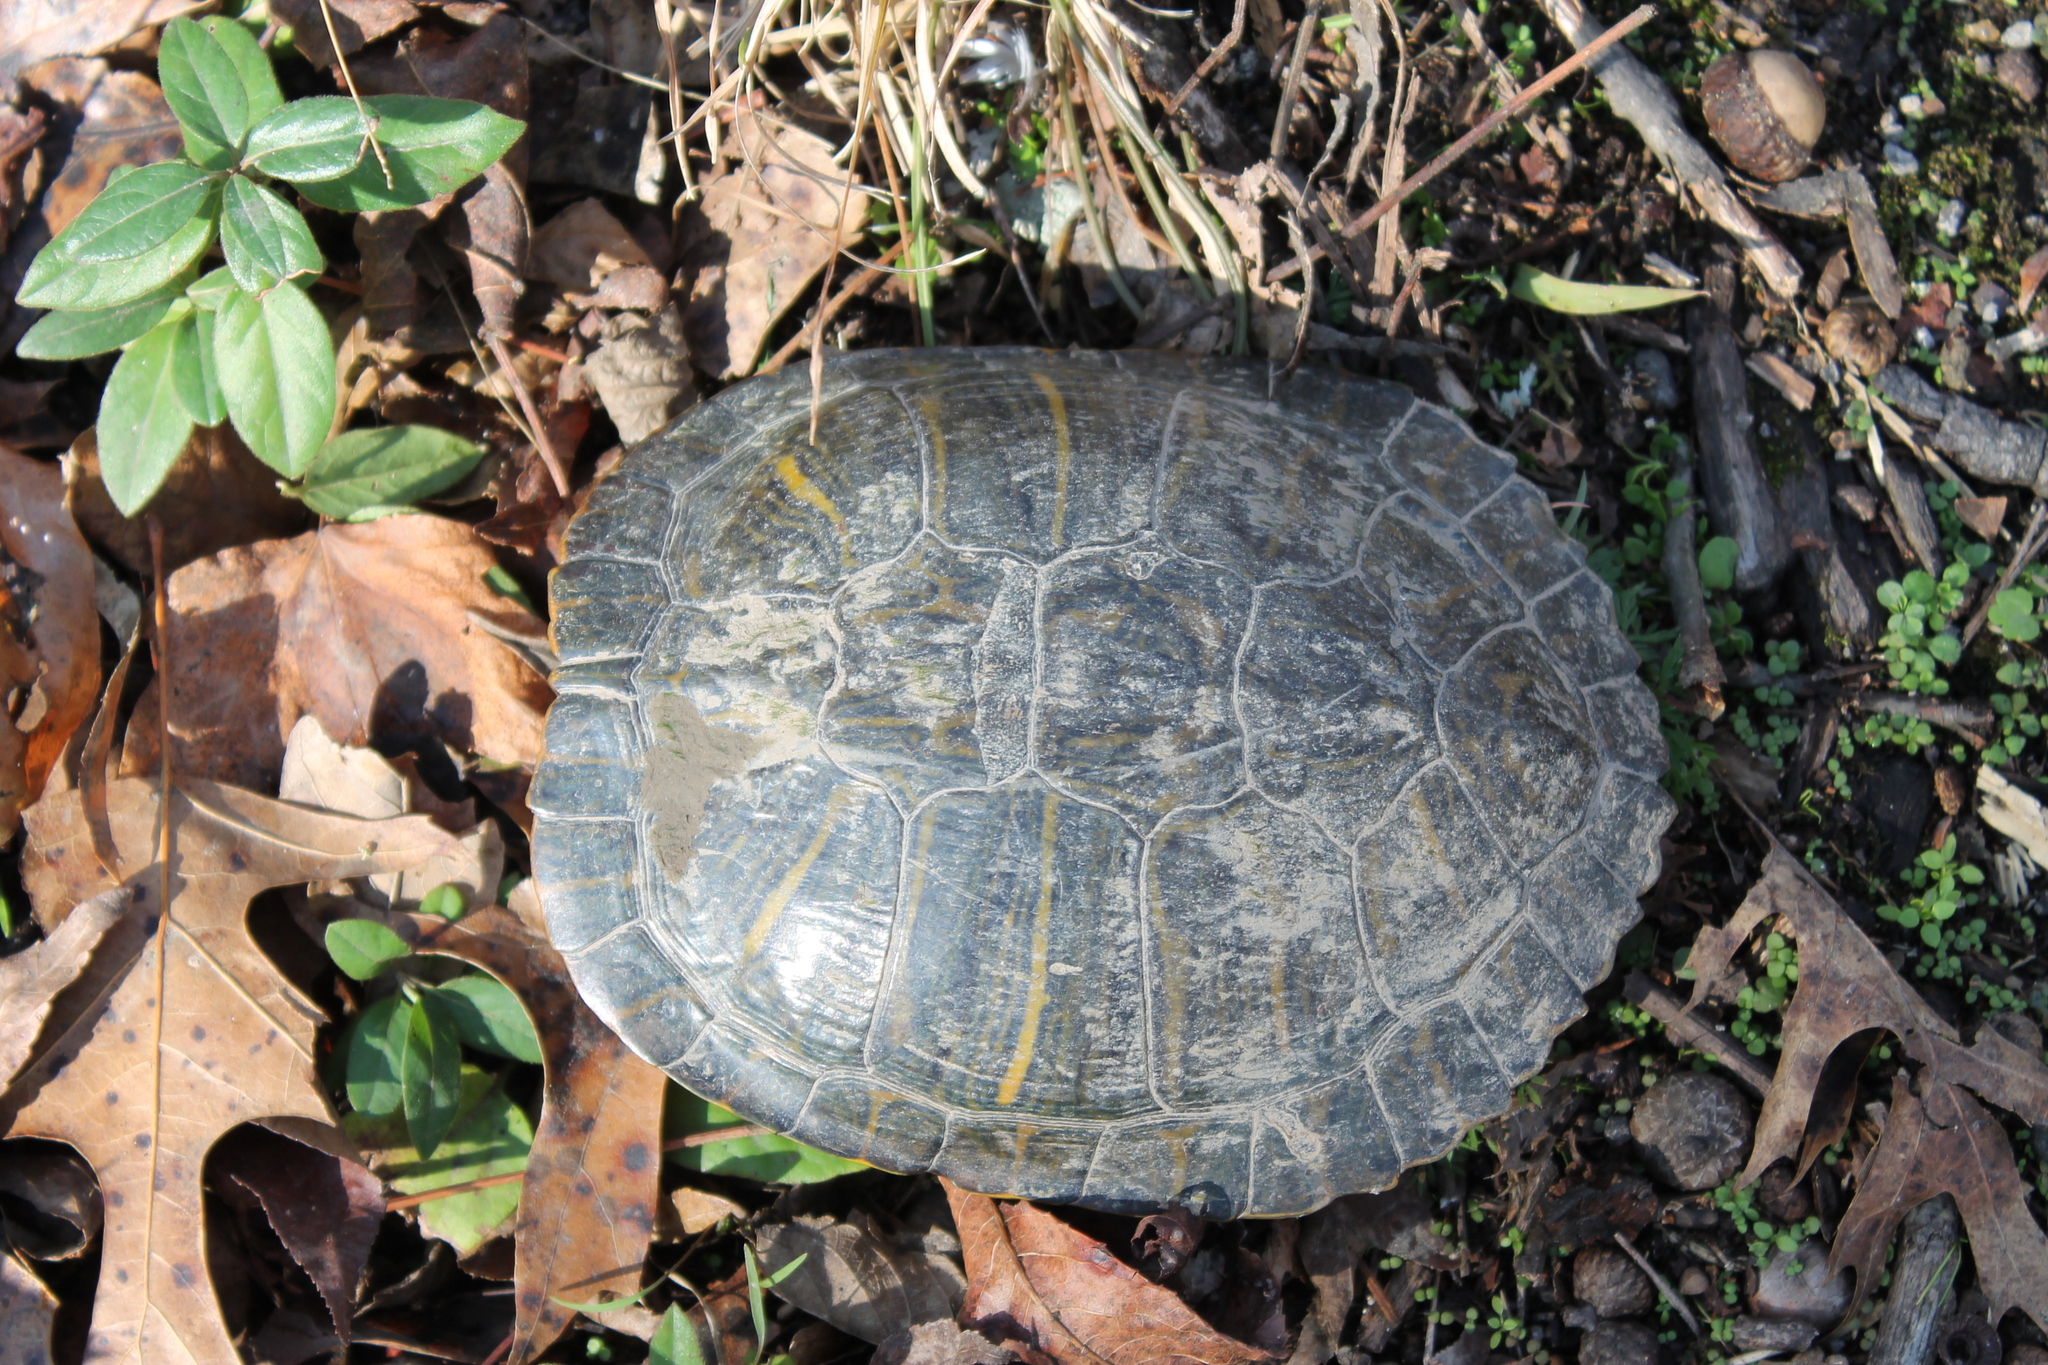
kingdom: Animalia
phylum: Chordata
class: Testudines
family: Emydidae
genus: Trachemys
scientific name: Trachemys scripta
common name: Slider
